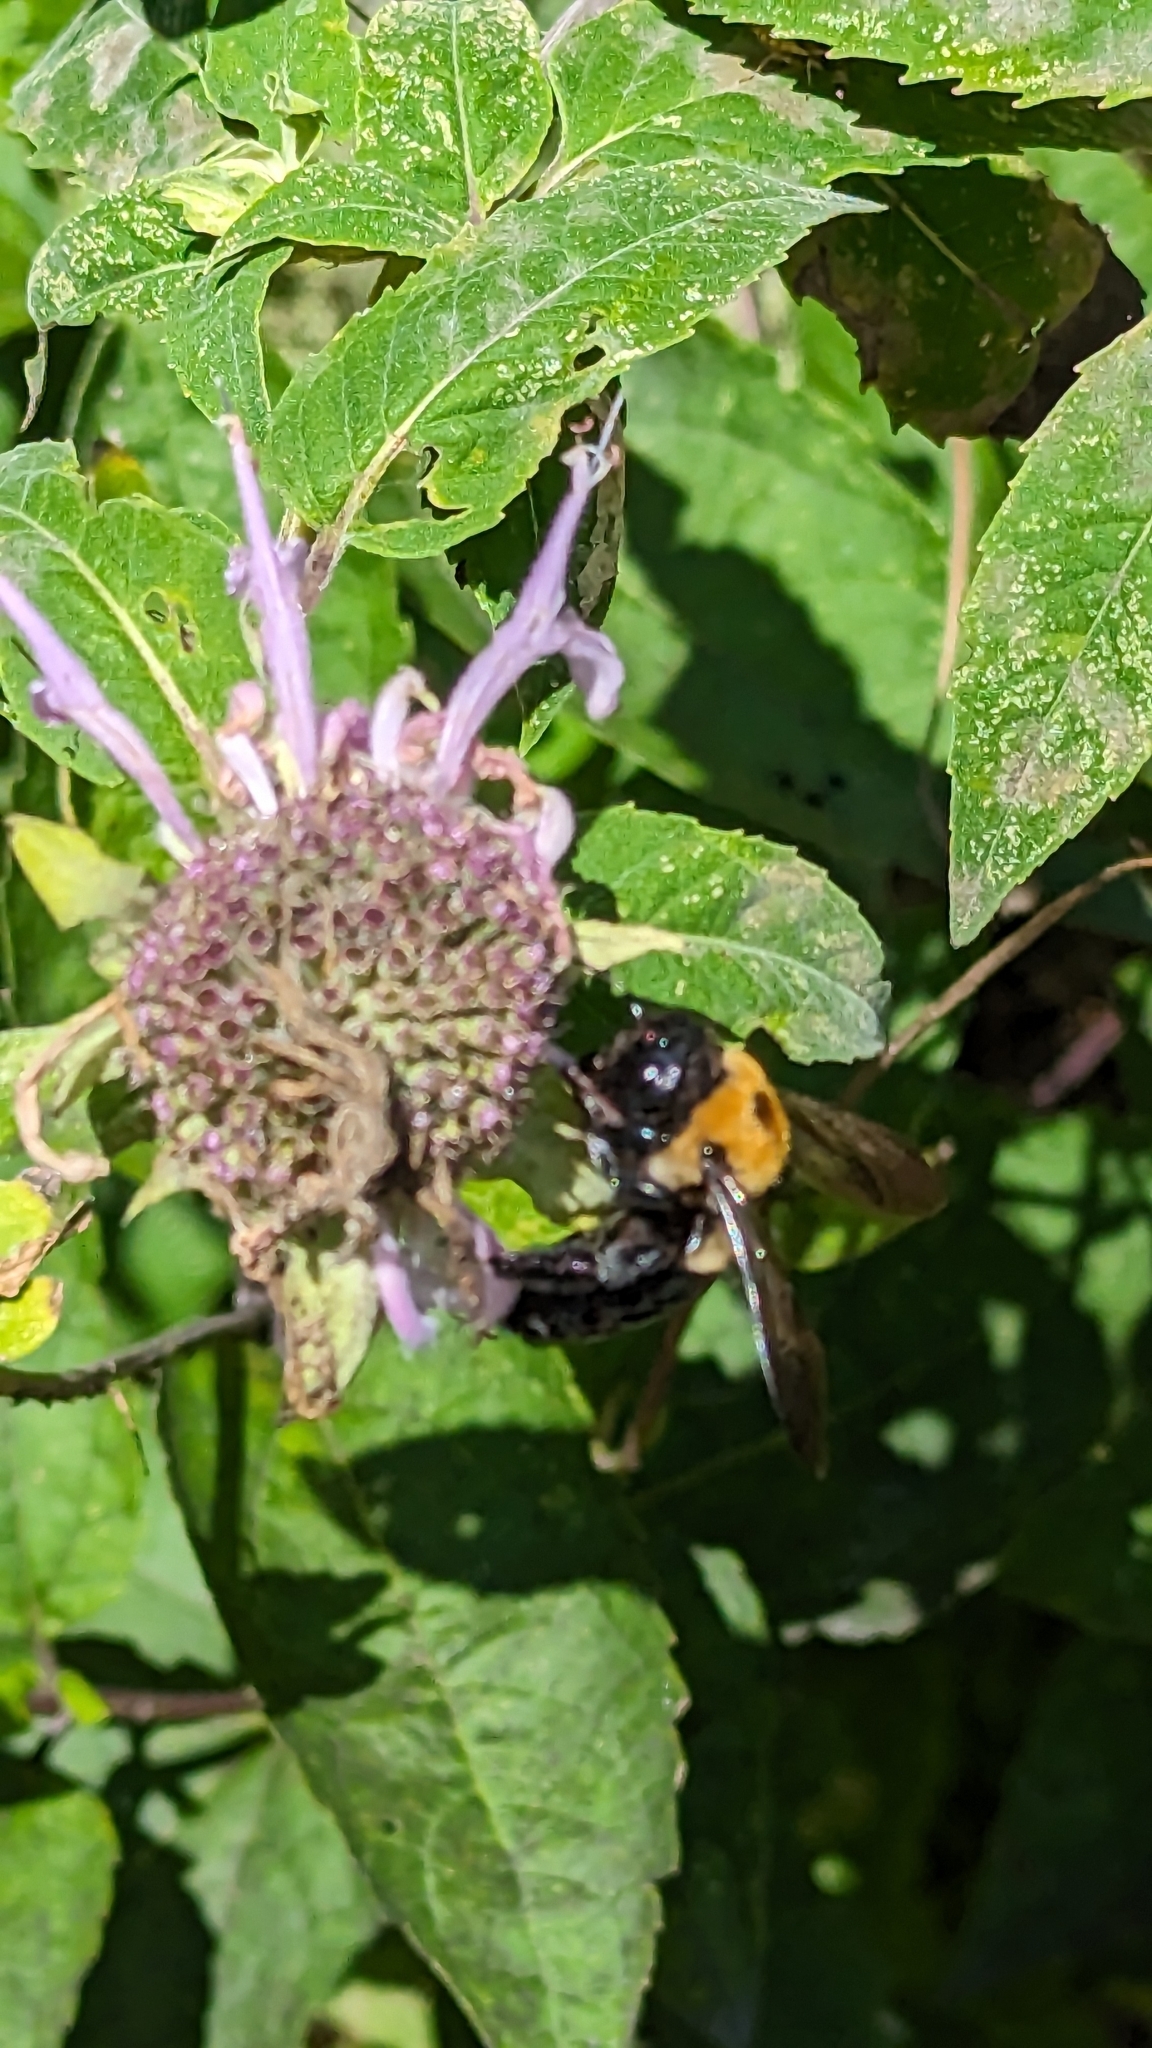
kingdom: Animalia
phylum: Arthropoda
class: Insecta
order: Hymenoptera
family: Apidae
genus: Xylocopa
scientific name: Xylocopa virginica
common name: Carpenter bee
